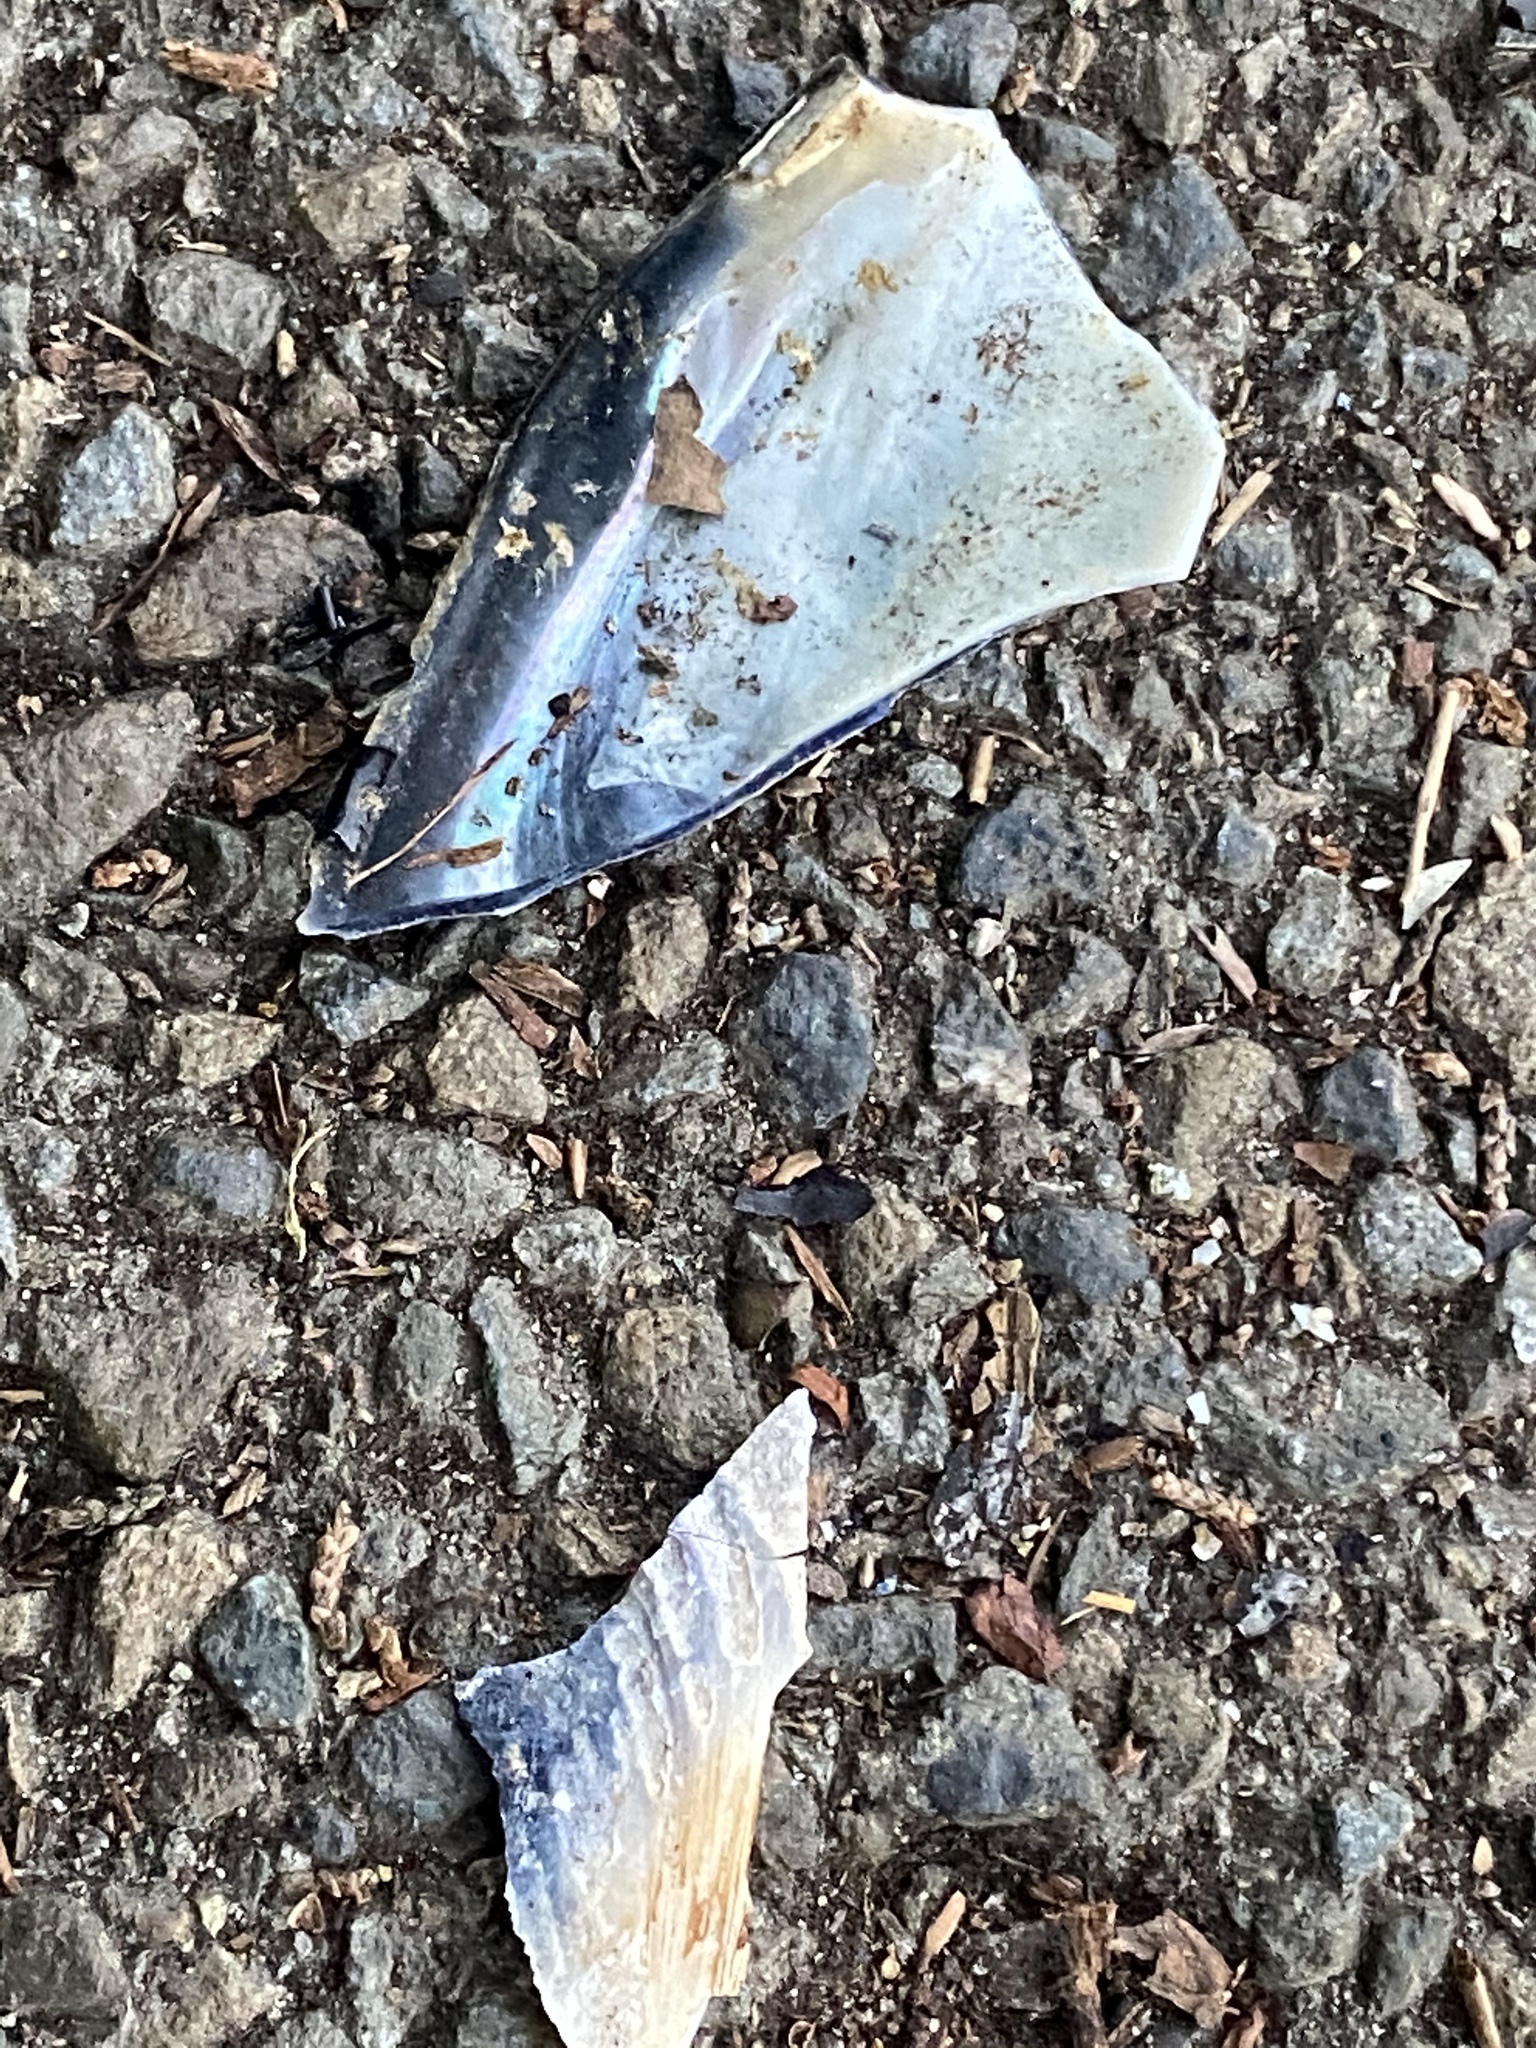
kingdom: Animalia
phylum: Mollusca
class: Bivalvia
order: Mytilida
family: Mytilidae
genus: Mytilus
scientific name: Mytilus californianus
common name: California mussel
